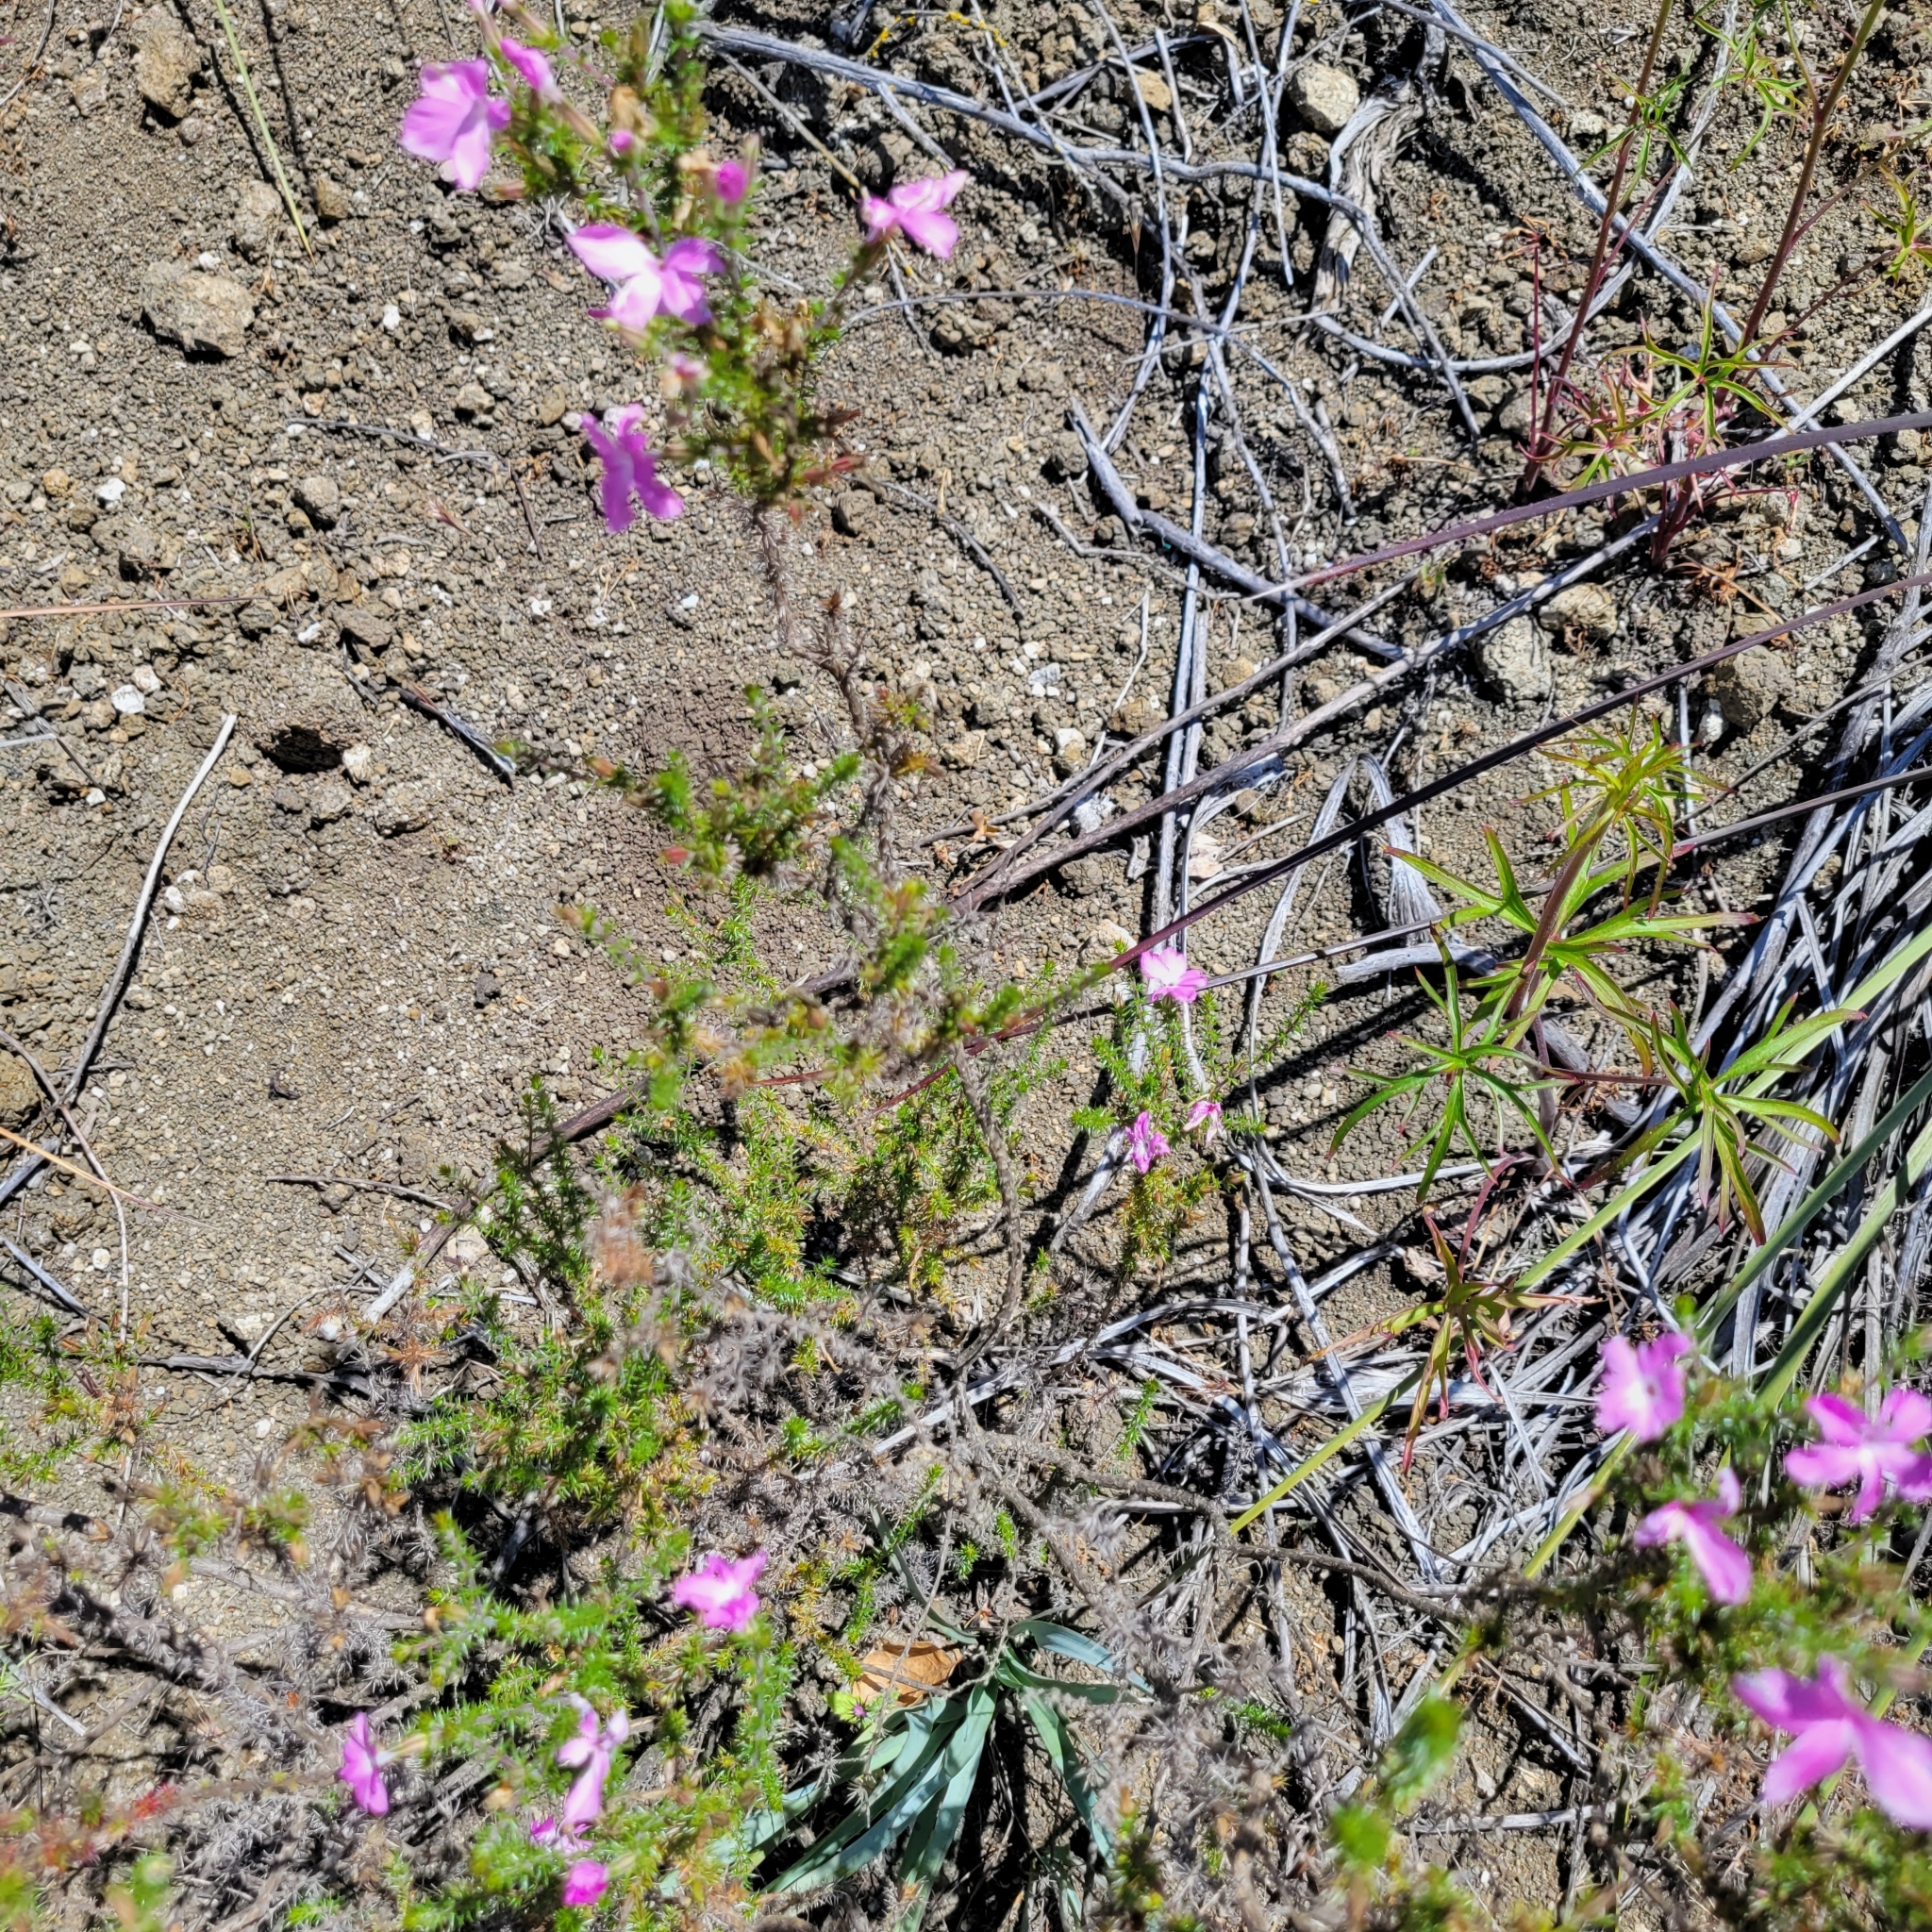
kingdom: Plantae
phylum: Tracheophyta
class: Magnoliopsida
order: Ericales
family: Polemoniaceae
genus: Linanthus
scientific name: Linanthus californicus
